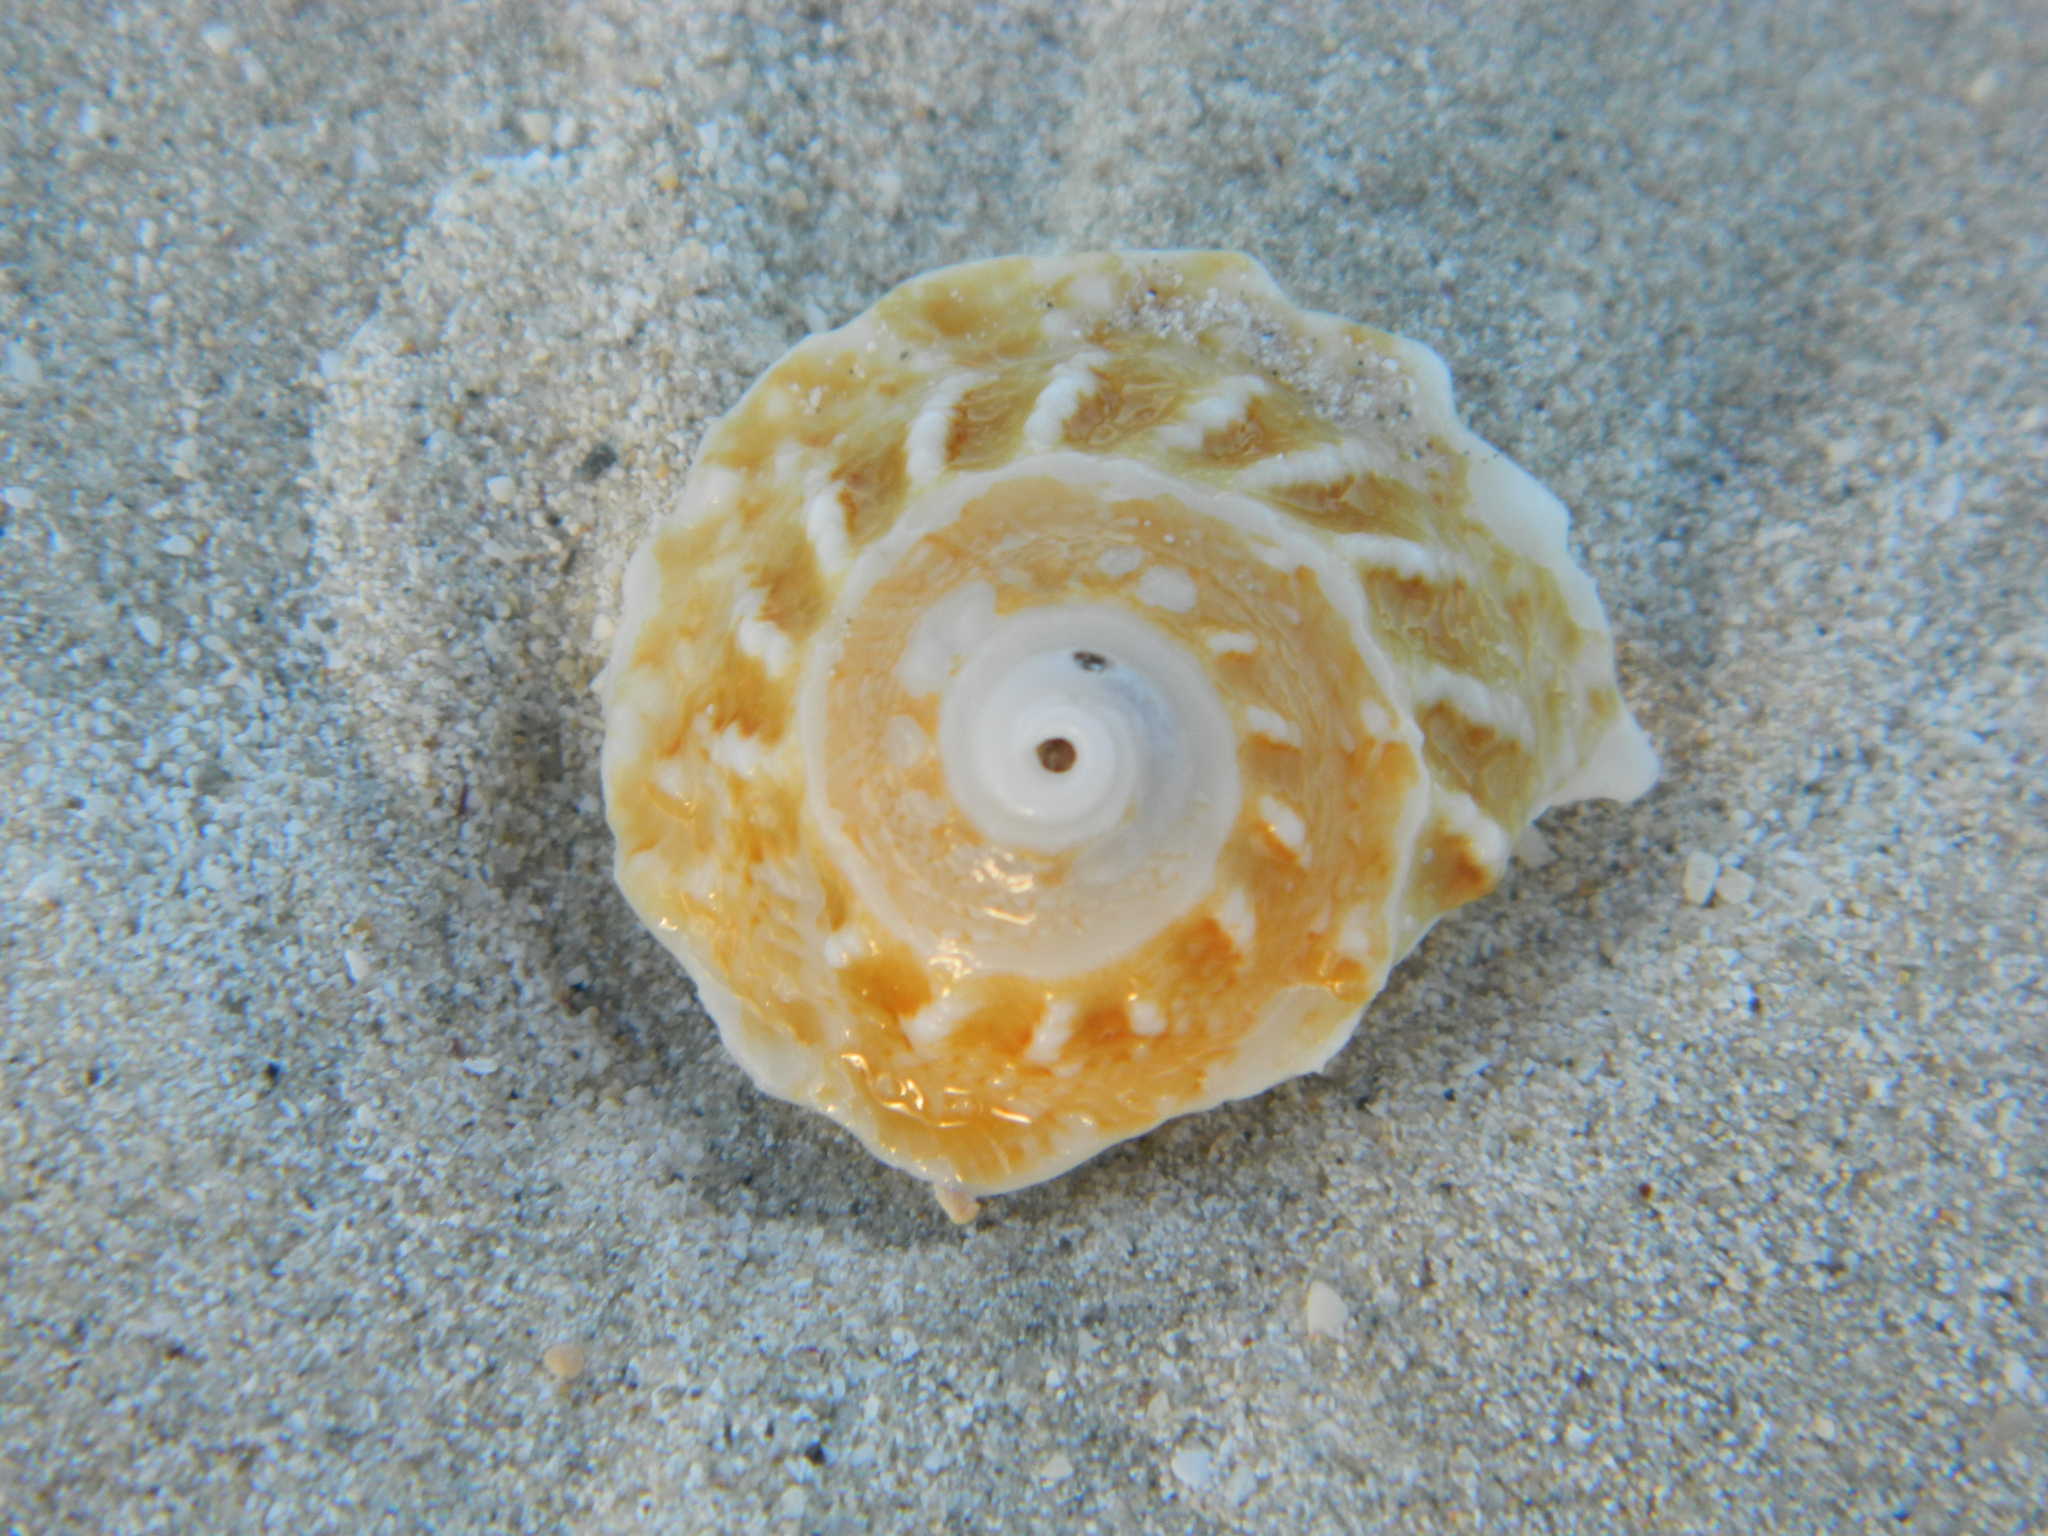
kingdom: Animalia
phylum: Mollusca
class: Gastropoda
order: Trochida
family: Turbinidae
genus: Lithopoma
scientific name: Lithopoma phoebium
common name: Long-spined starsnail
